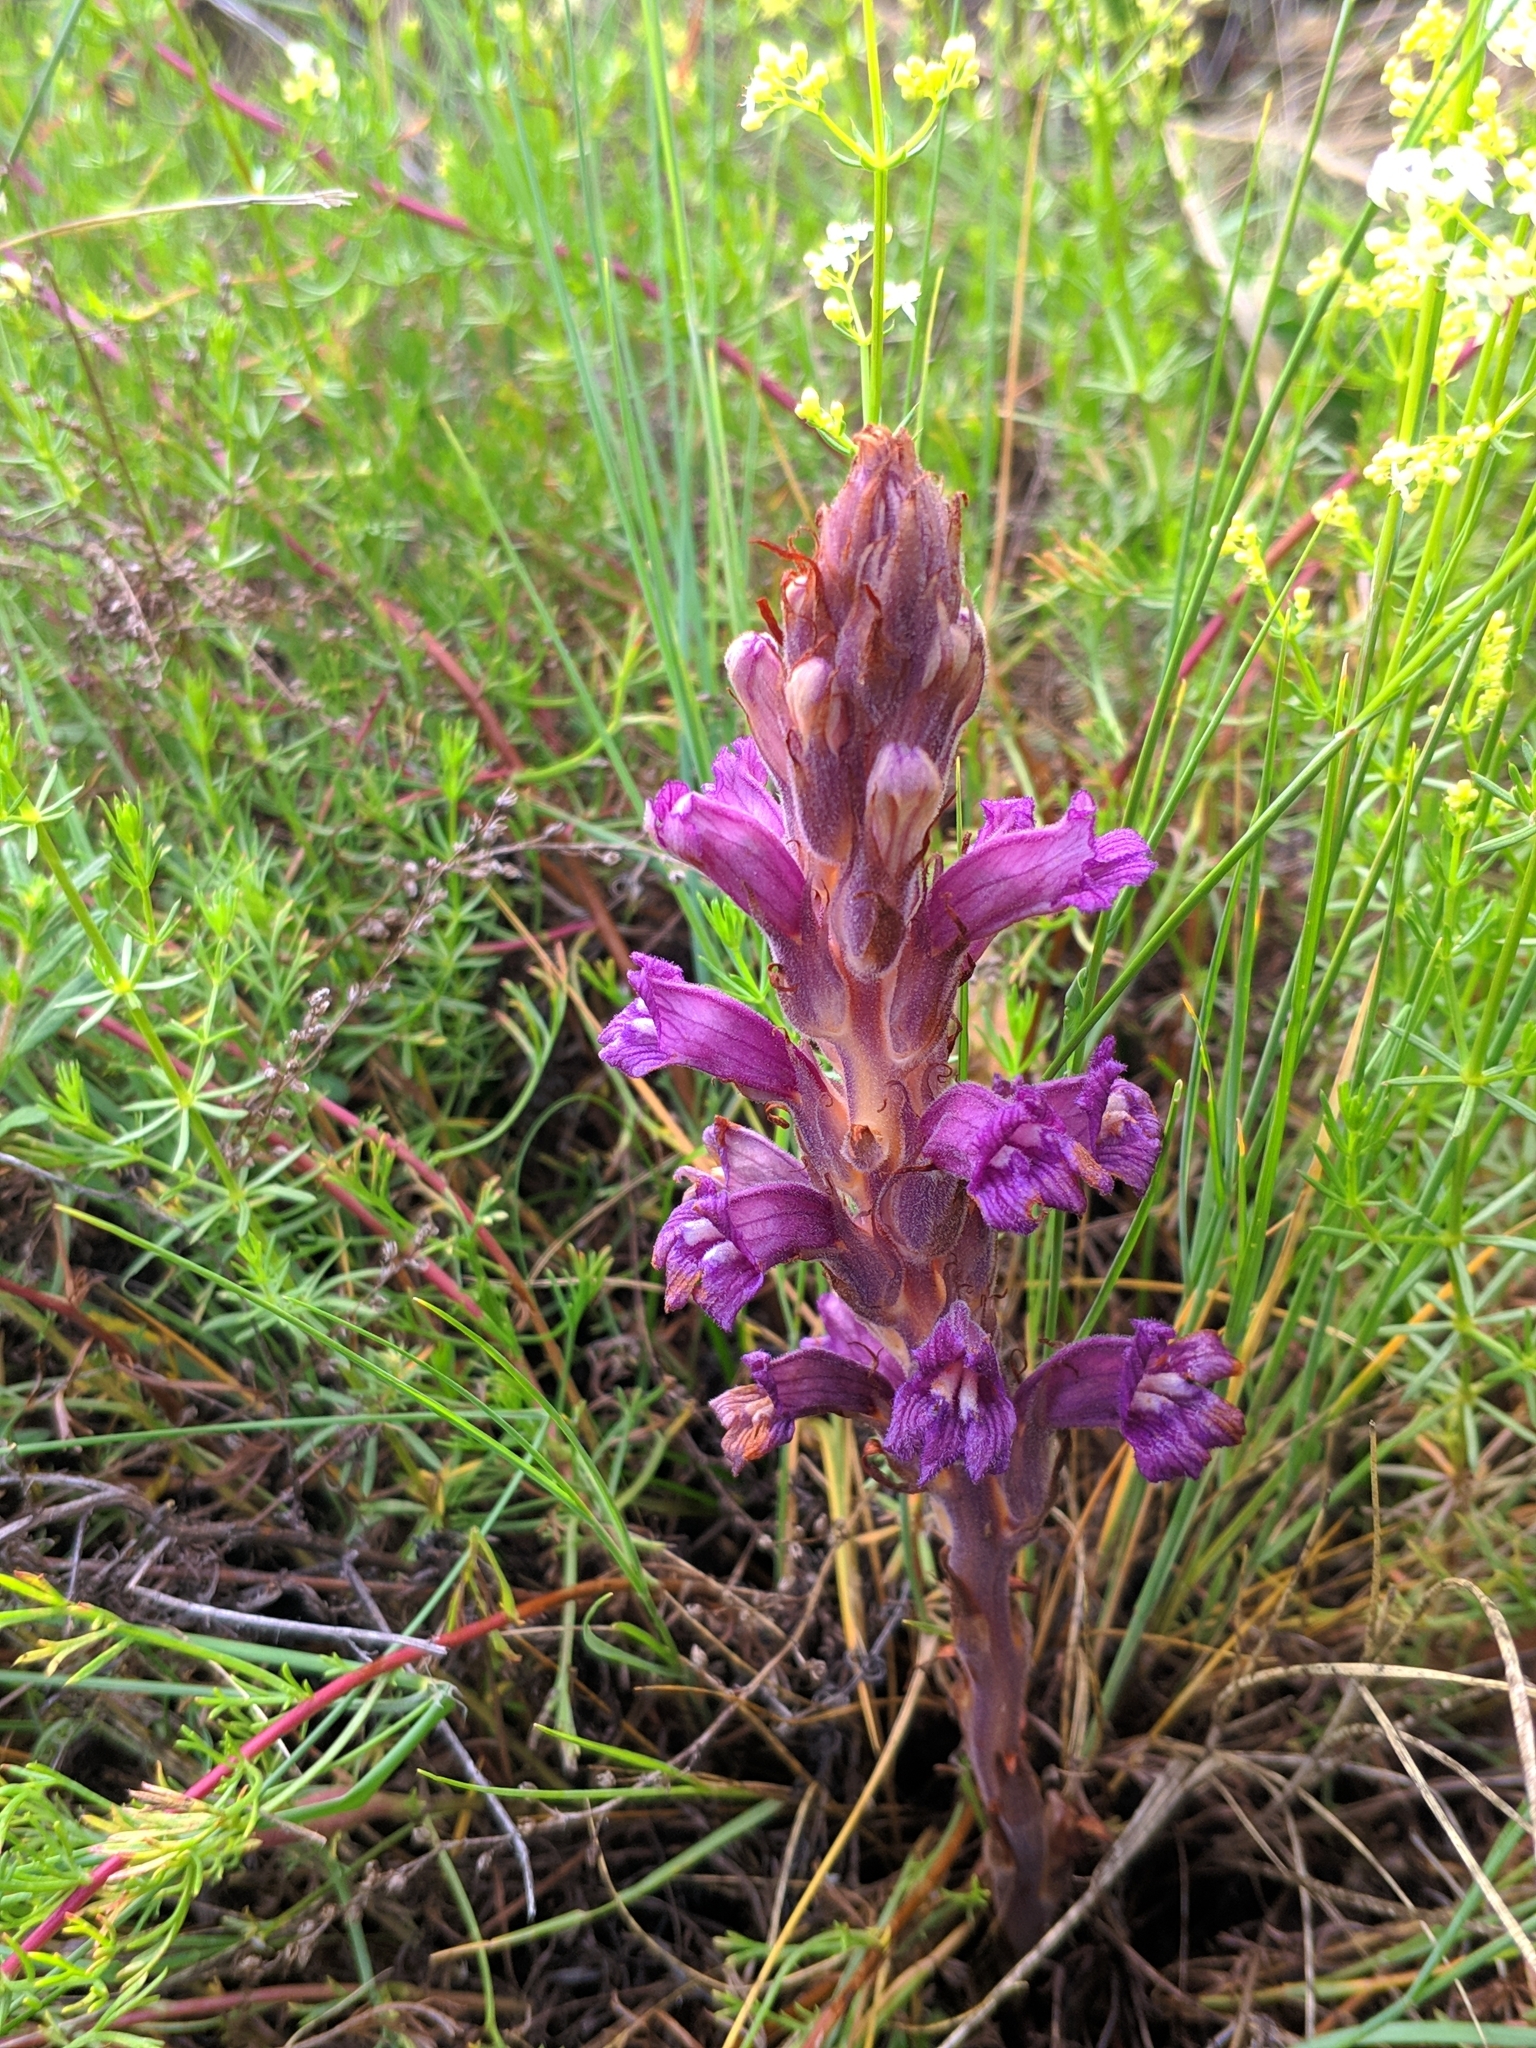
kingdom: Plantae
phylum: Tracheophyta
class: Magnoliopsida
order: Lamiales
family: Orobanchaceae
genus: Phelipanche
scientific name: Phelipanche arenaria
